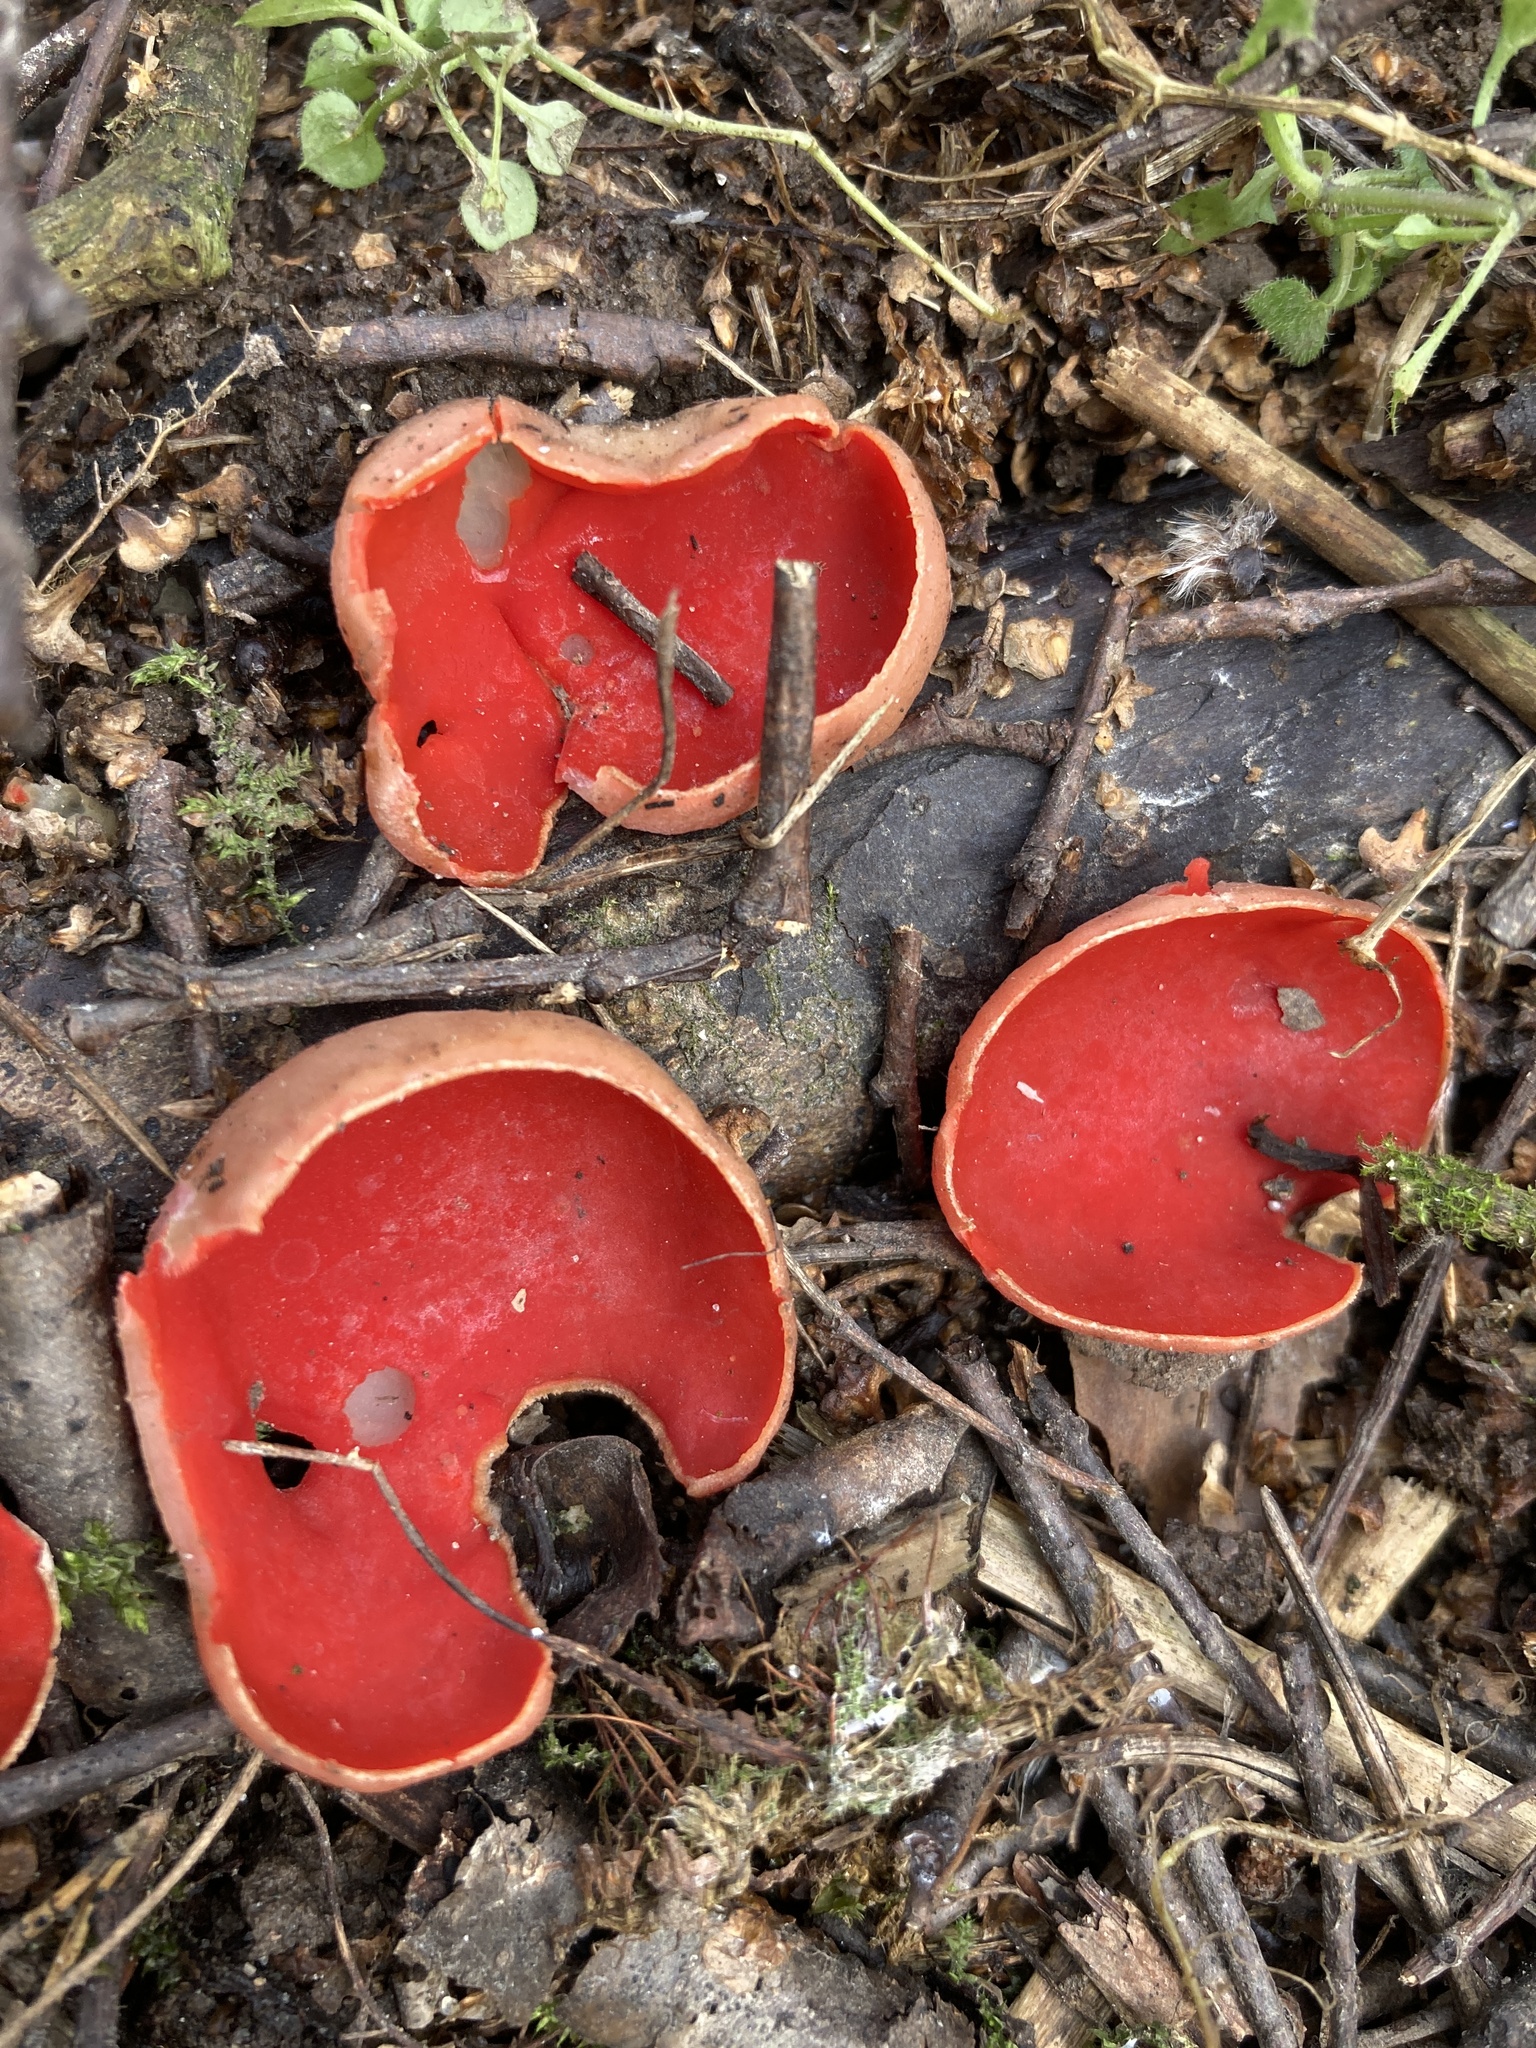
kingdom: Fungi
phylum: Ascomycota
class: Pezizomycetes
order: Pezizales
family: Sarcoscyphaceae
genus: Sarcoscypha
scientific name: Sarcoscypha austriaca
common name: Scarlet elfcup
